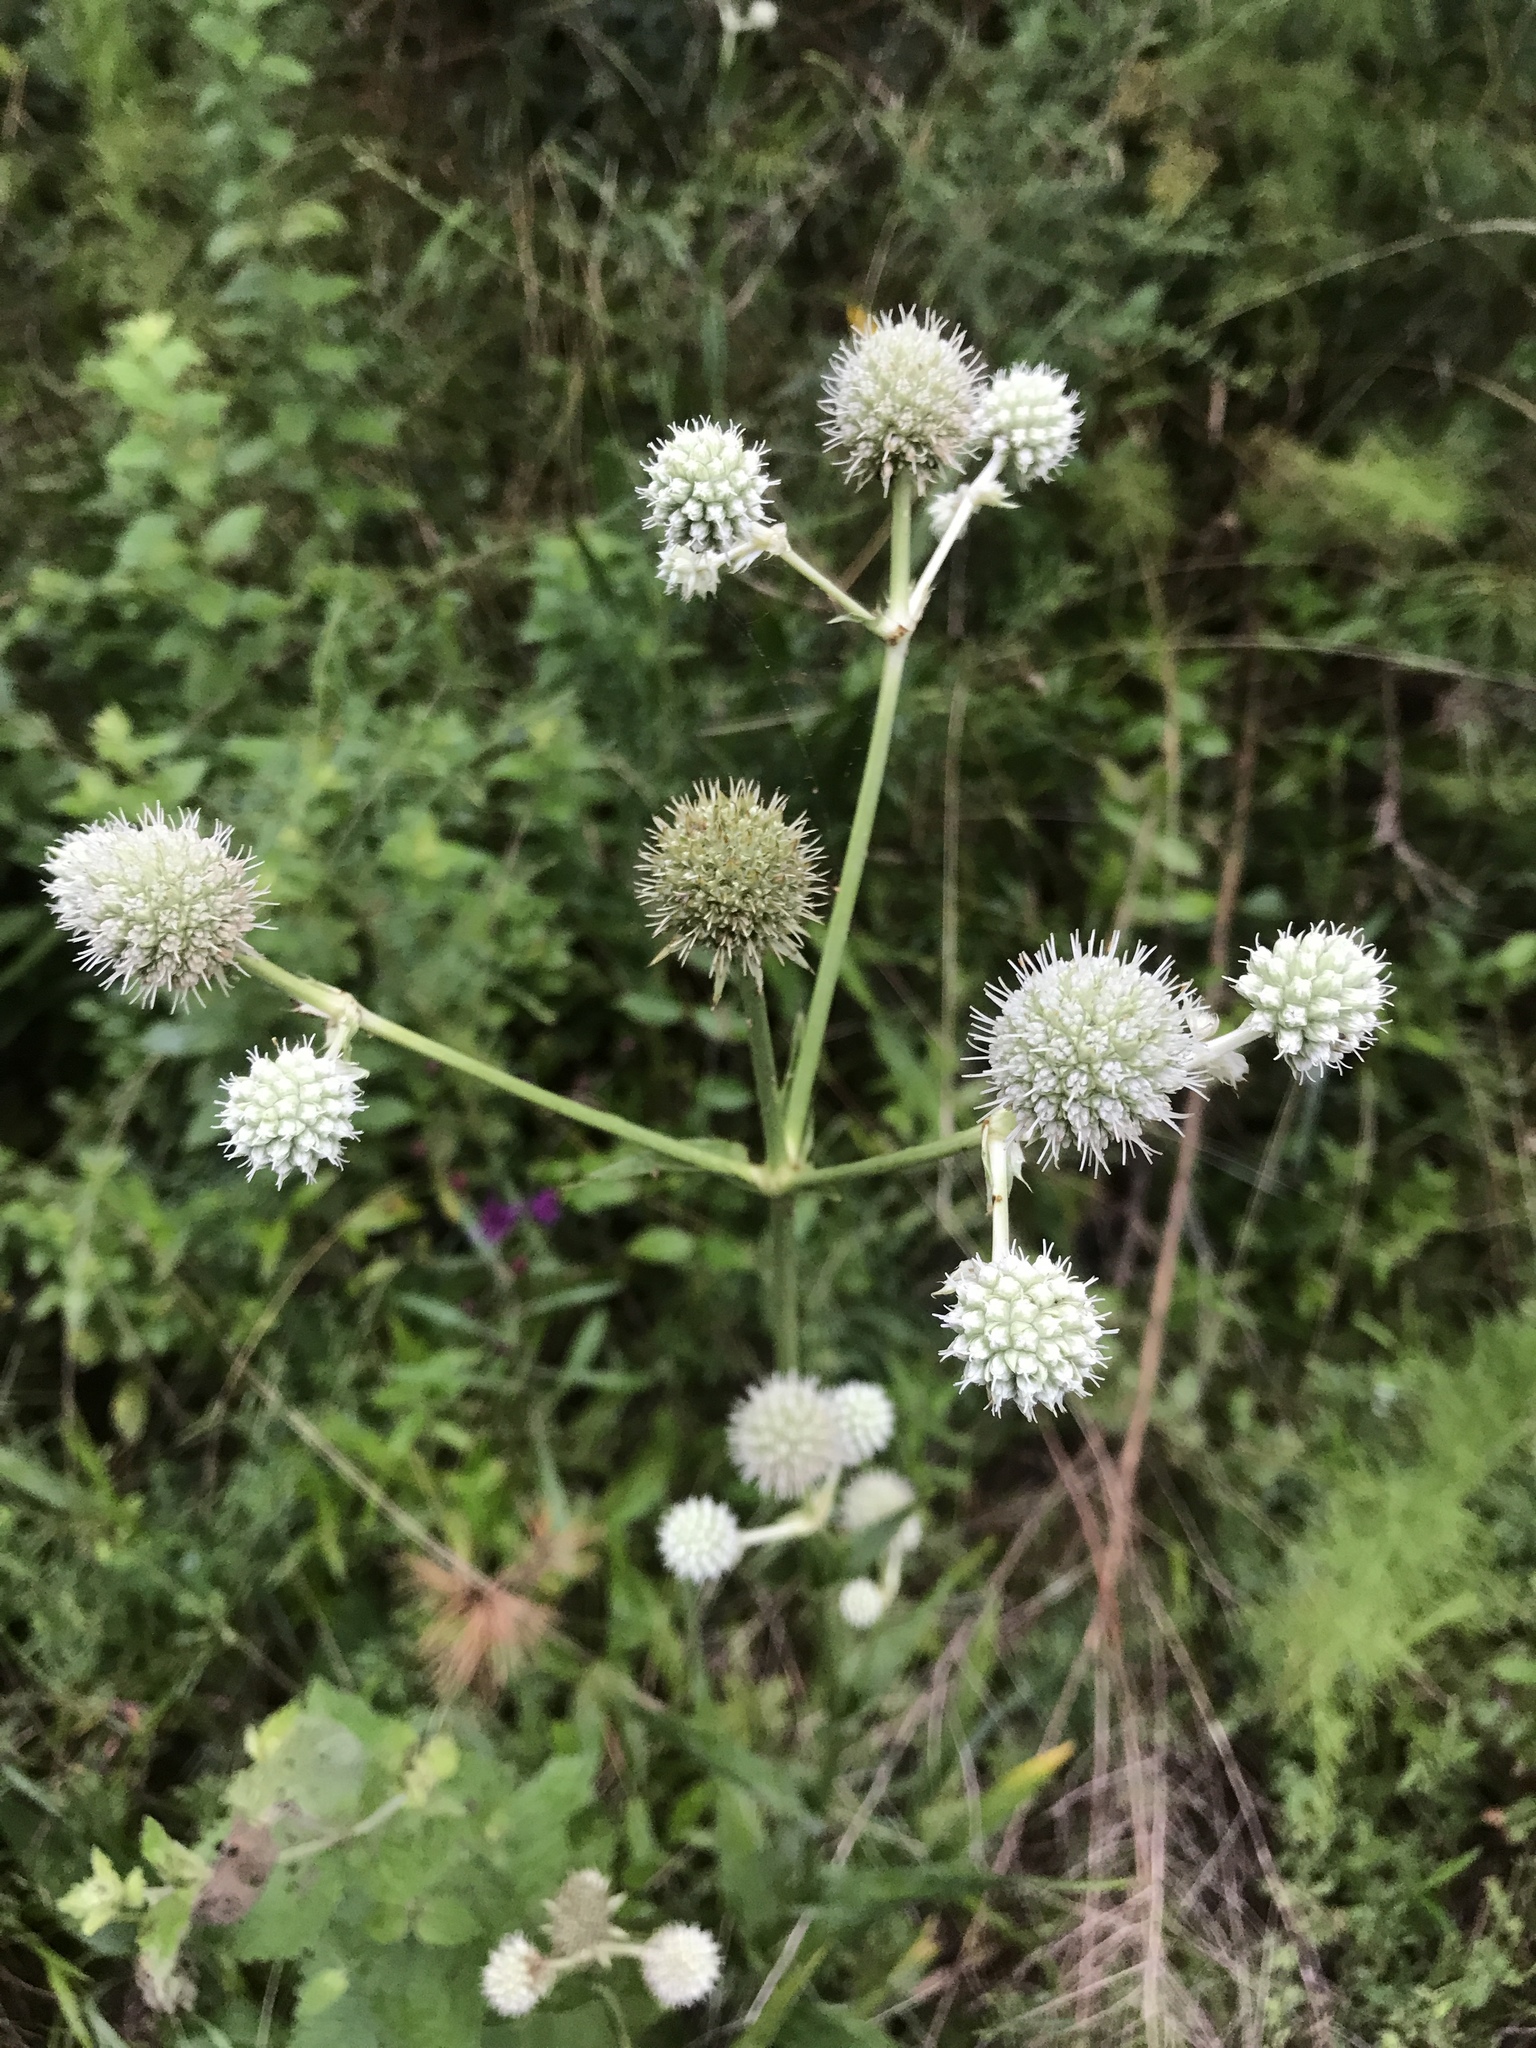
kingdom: Plantae
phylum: Tracheophyta
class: Magnoliopsida
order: Apiales
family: Apiaceae
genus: Eryngium
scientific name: Eryngium yuccifolium
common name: Button eryngo
